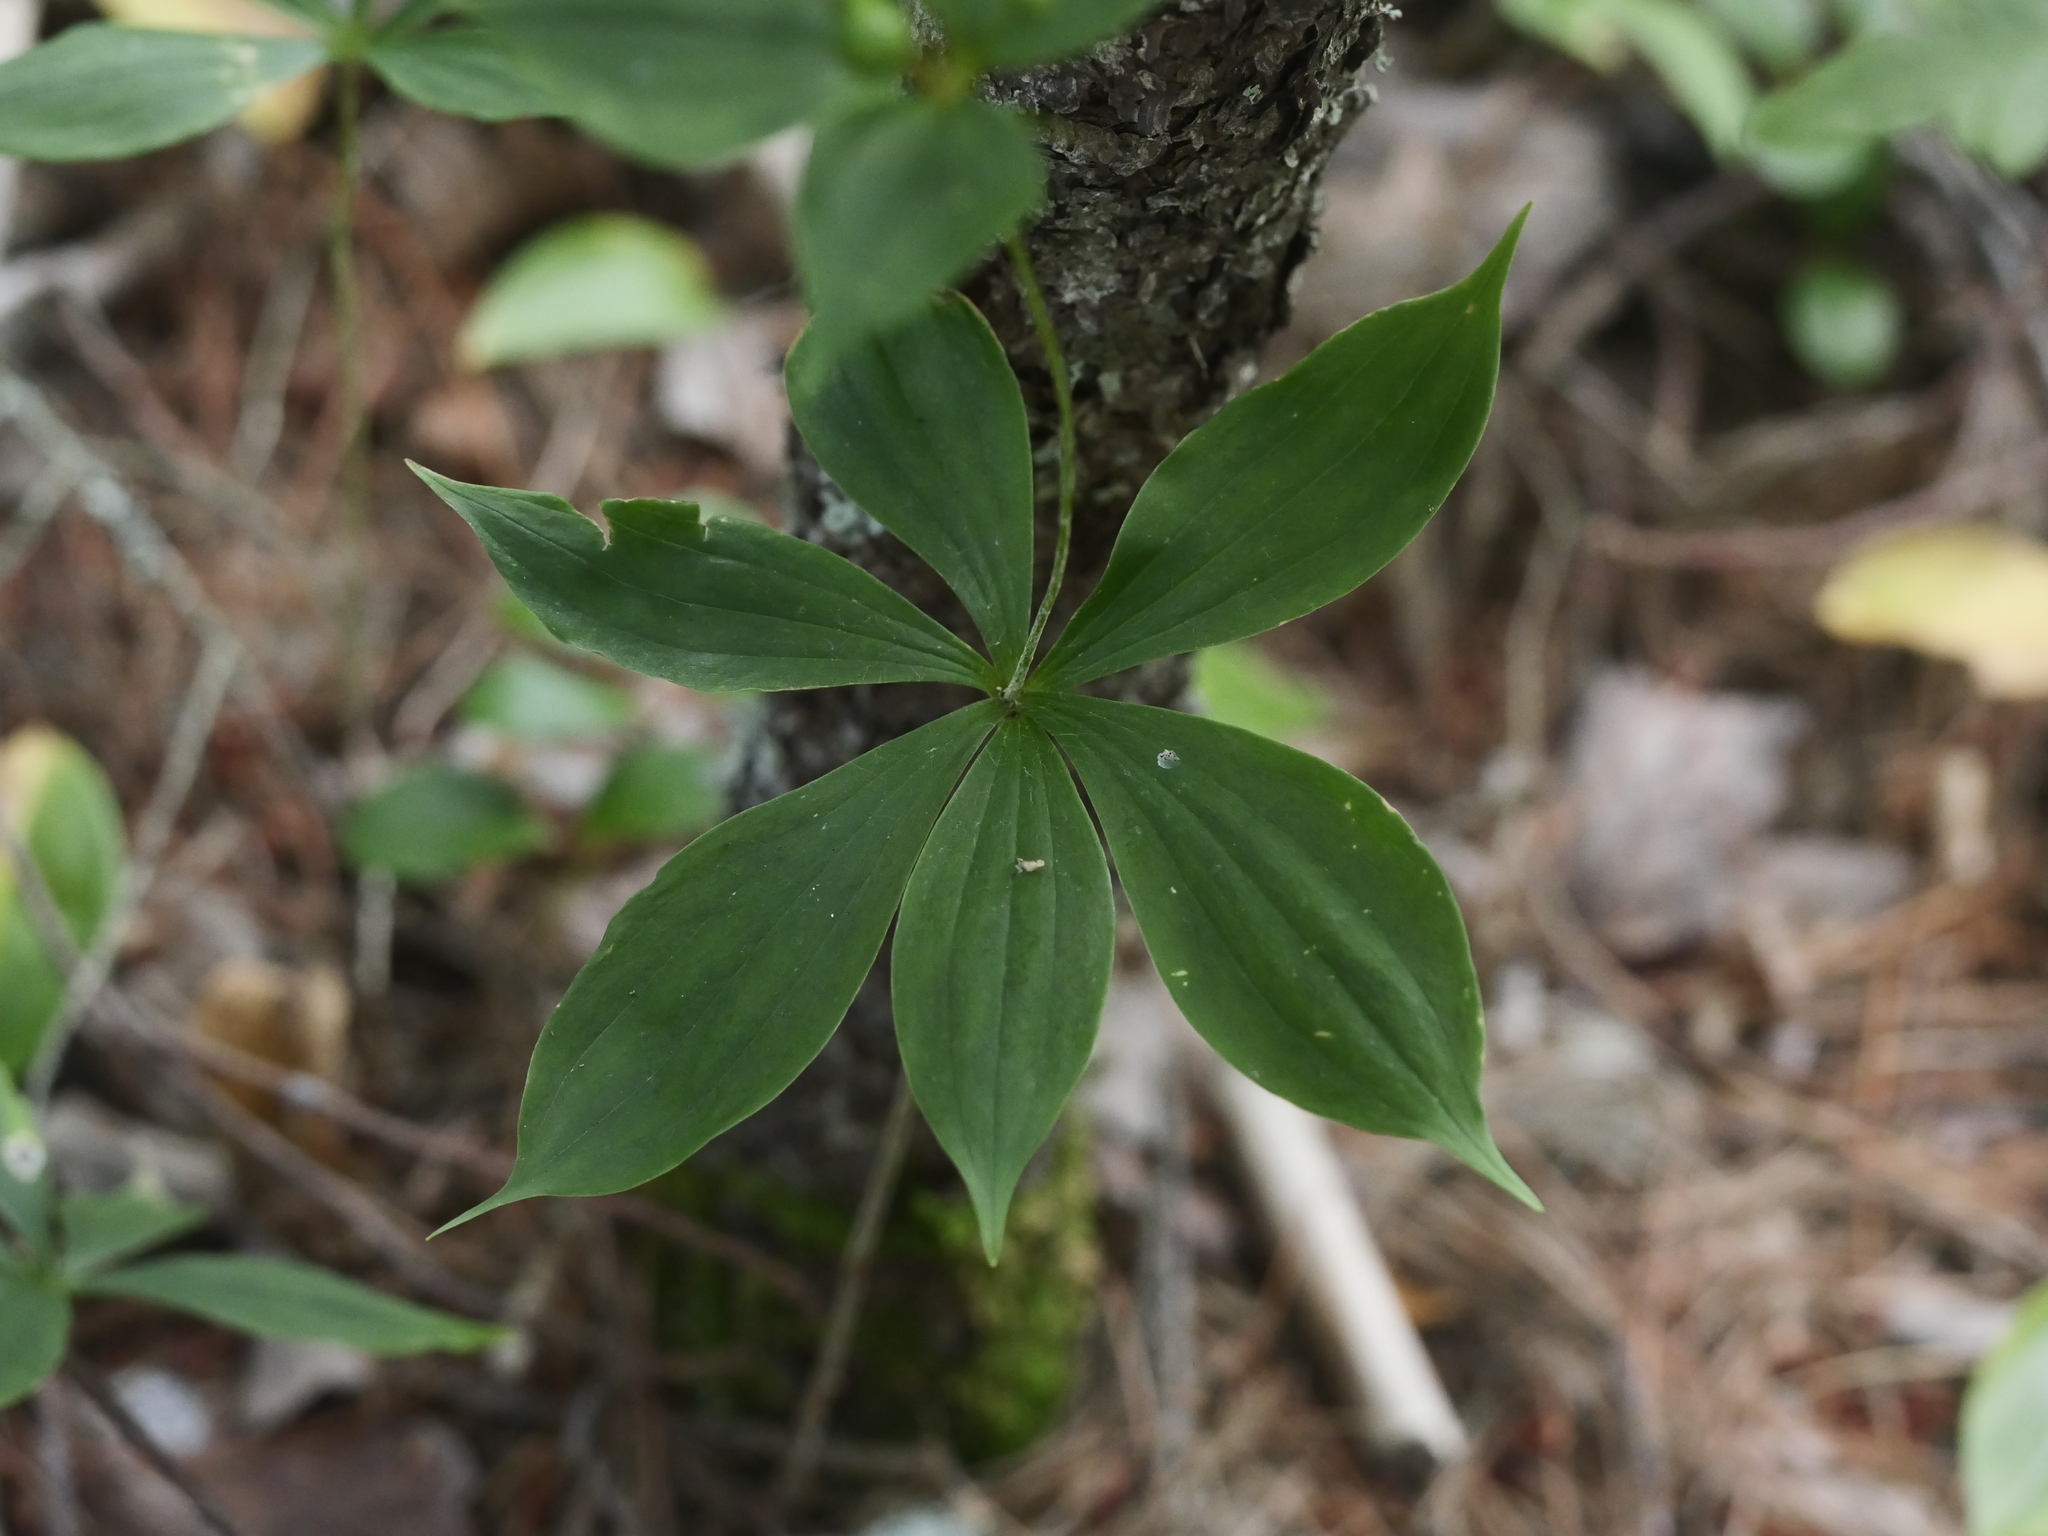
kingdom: Plantae
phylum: Tracheophyta
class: Liliopsida
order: Liliales
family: Liliaceae
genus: Medeola
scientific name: Medeola virginiana
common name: Indian cucumber-root
